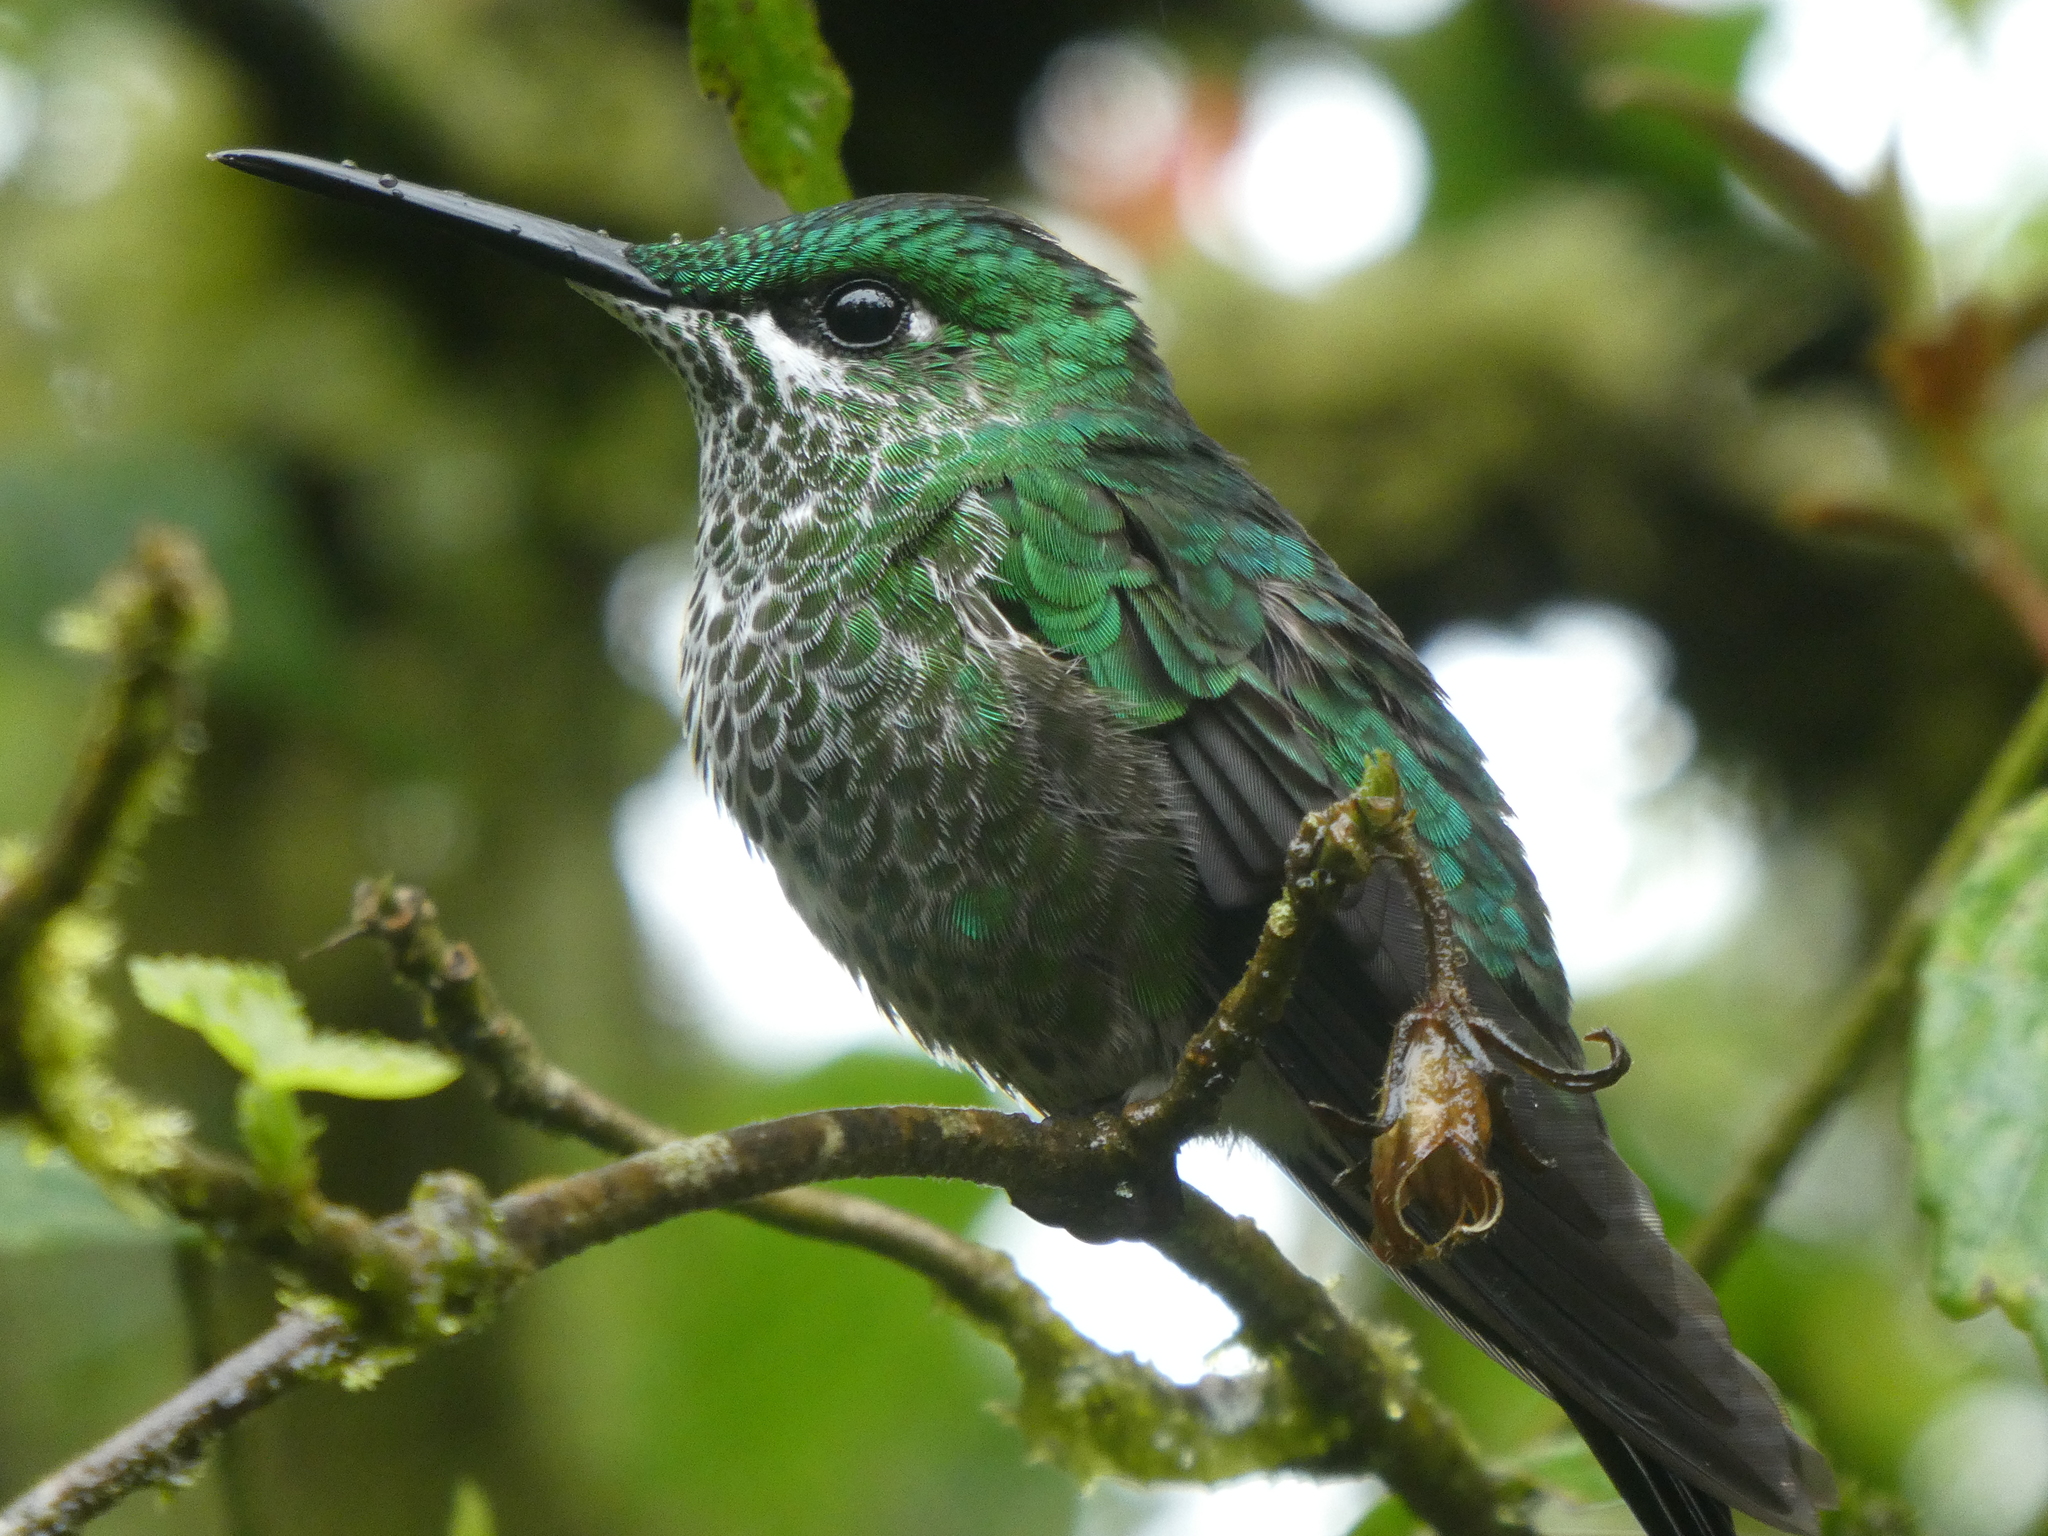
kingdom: Animalia
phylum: Chordata
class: Aves
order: Apodiformes
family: Trochilidae
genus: Heliodoxa
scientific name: Heliodoxa jacula
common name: Green-crowned brilliant
